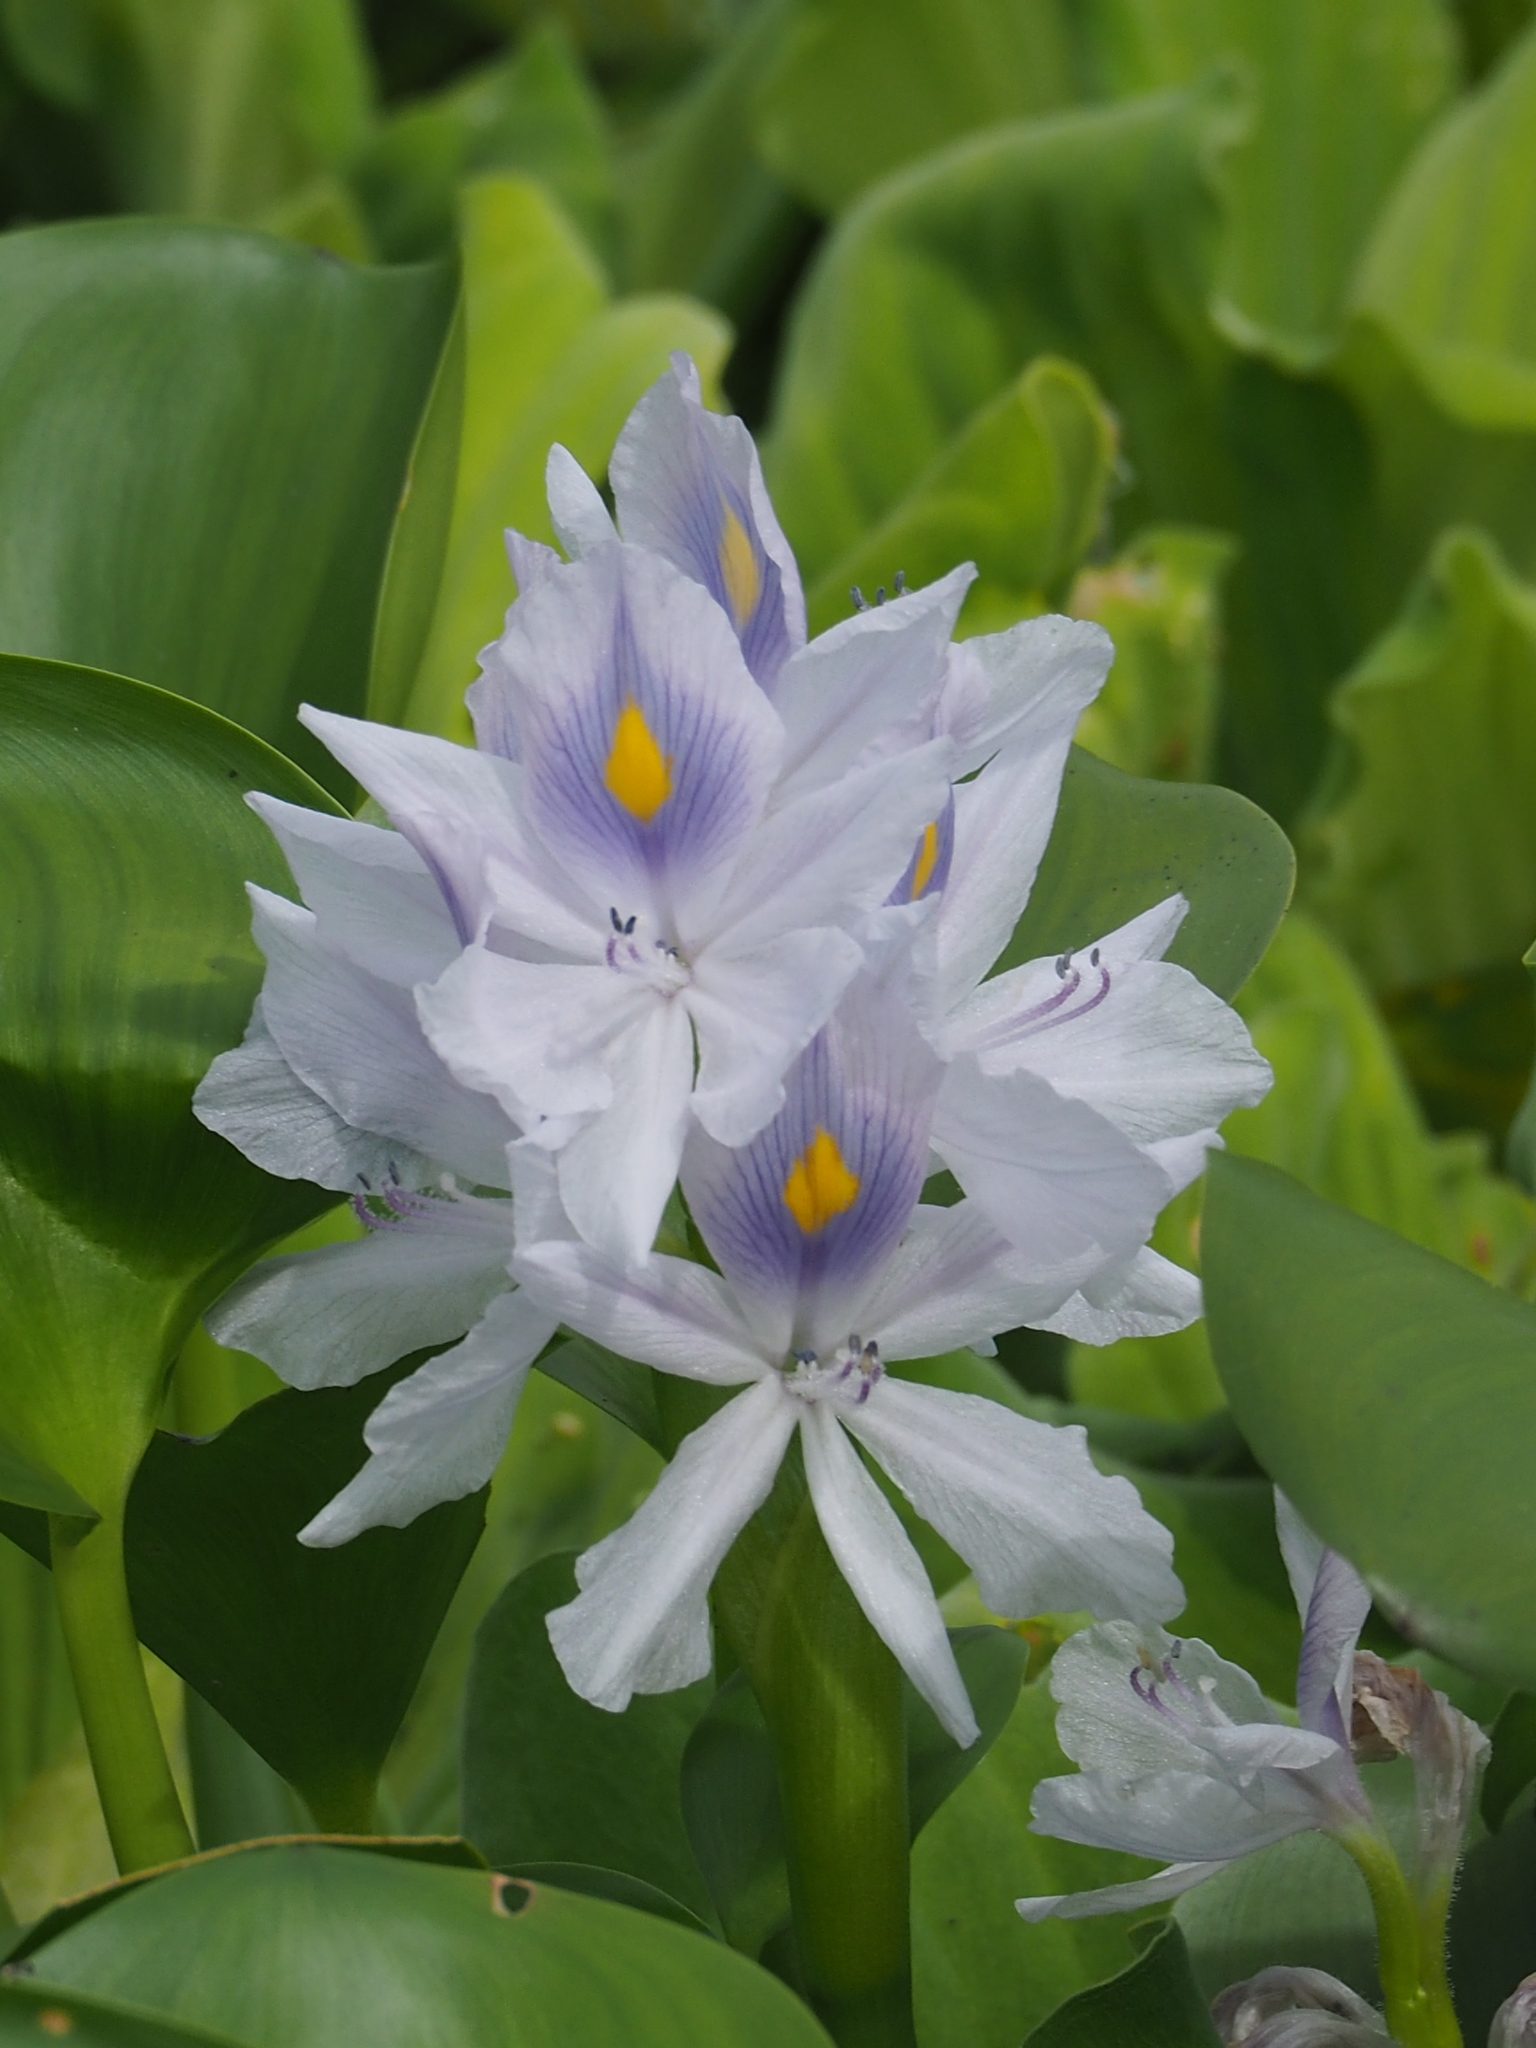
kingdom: Plantae
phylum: Tracheophyta
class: Liliopsida
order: Commelinales
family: Pontederiaceae
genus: Pontederia
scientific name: Pontederia crassipes
